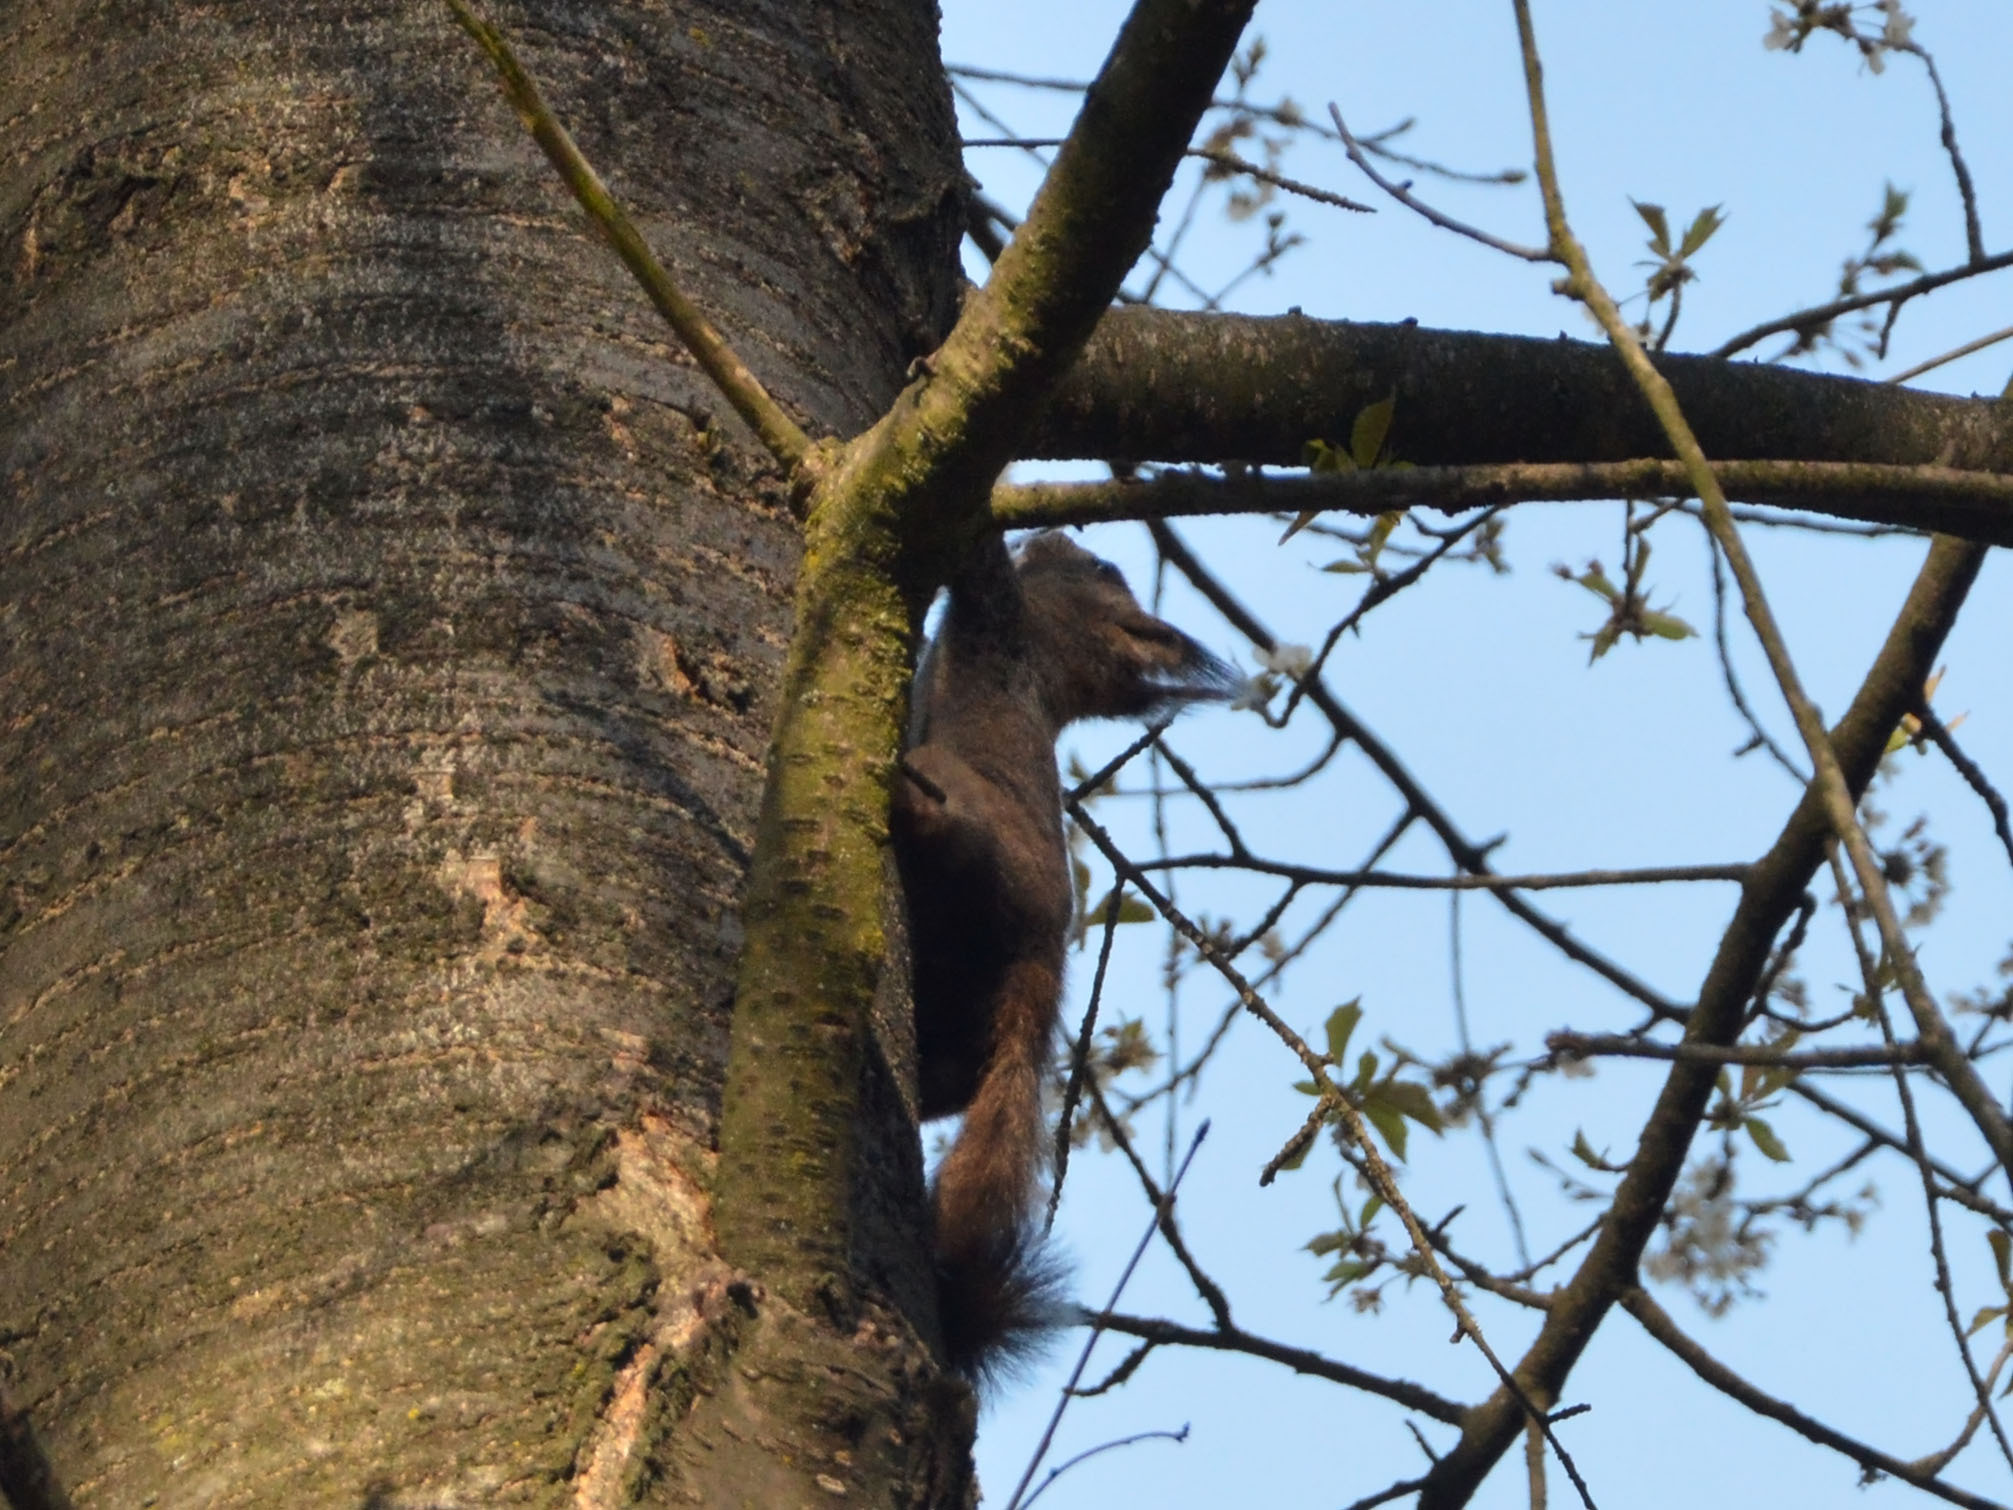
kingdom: Animalia
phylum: Chordata
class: Mammalia
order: Rodentia
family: Sciuridae
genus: Sciurus
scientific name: Sciurus vulgaris
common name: Eurasian red squirrel
